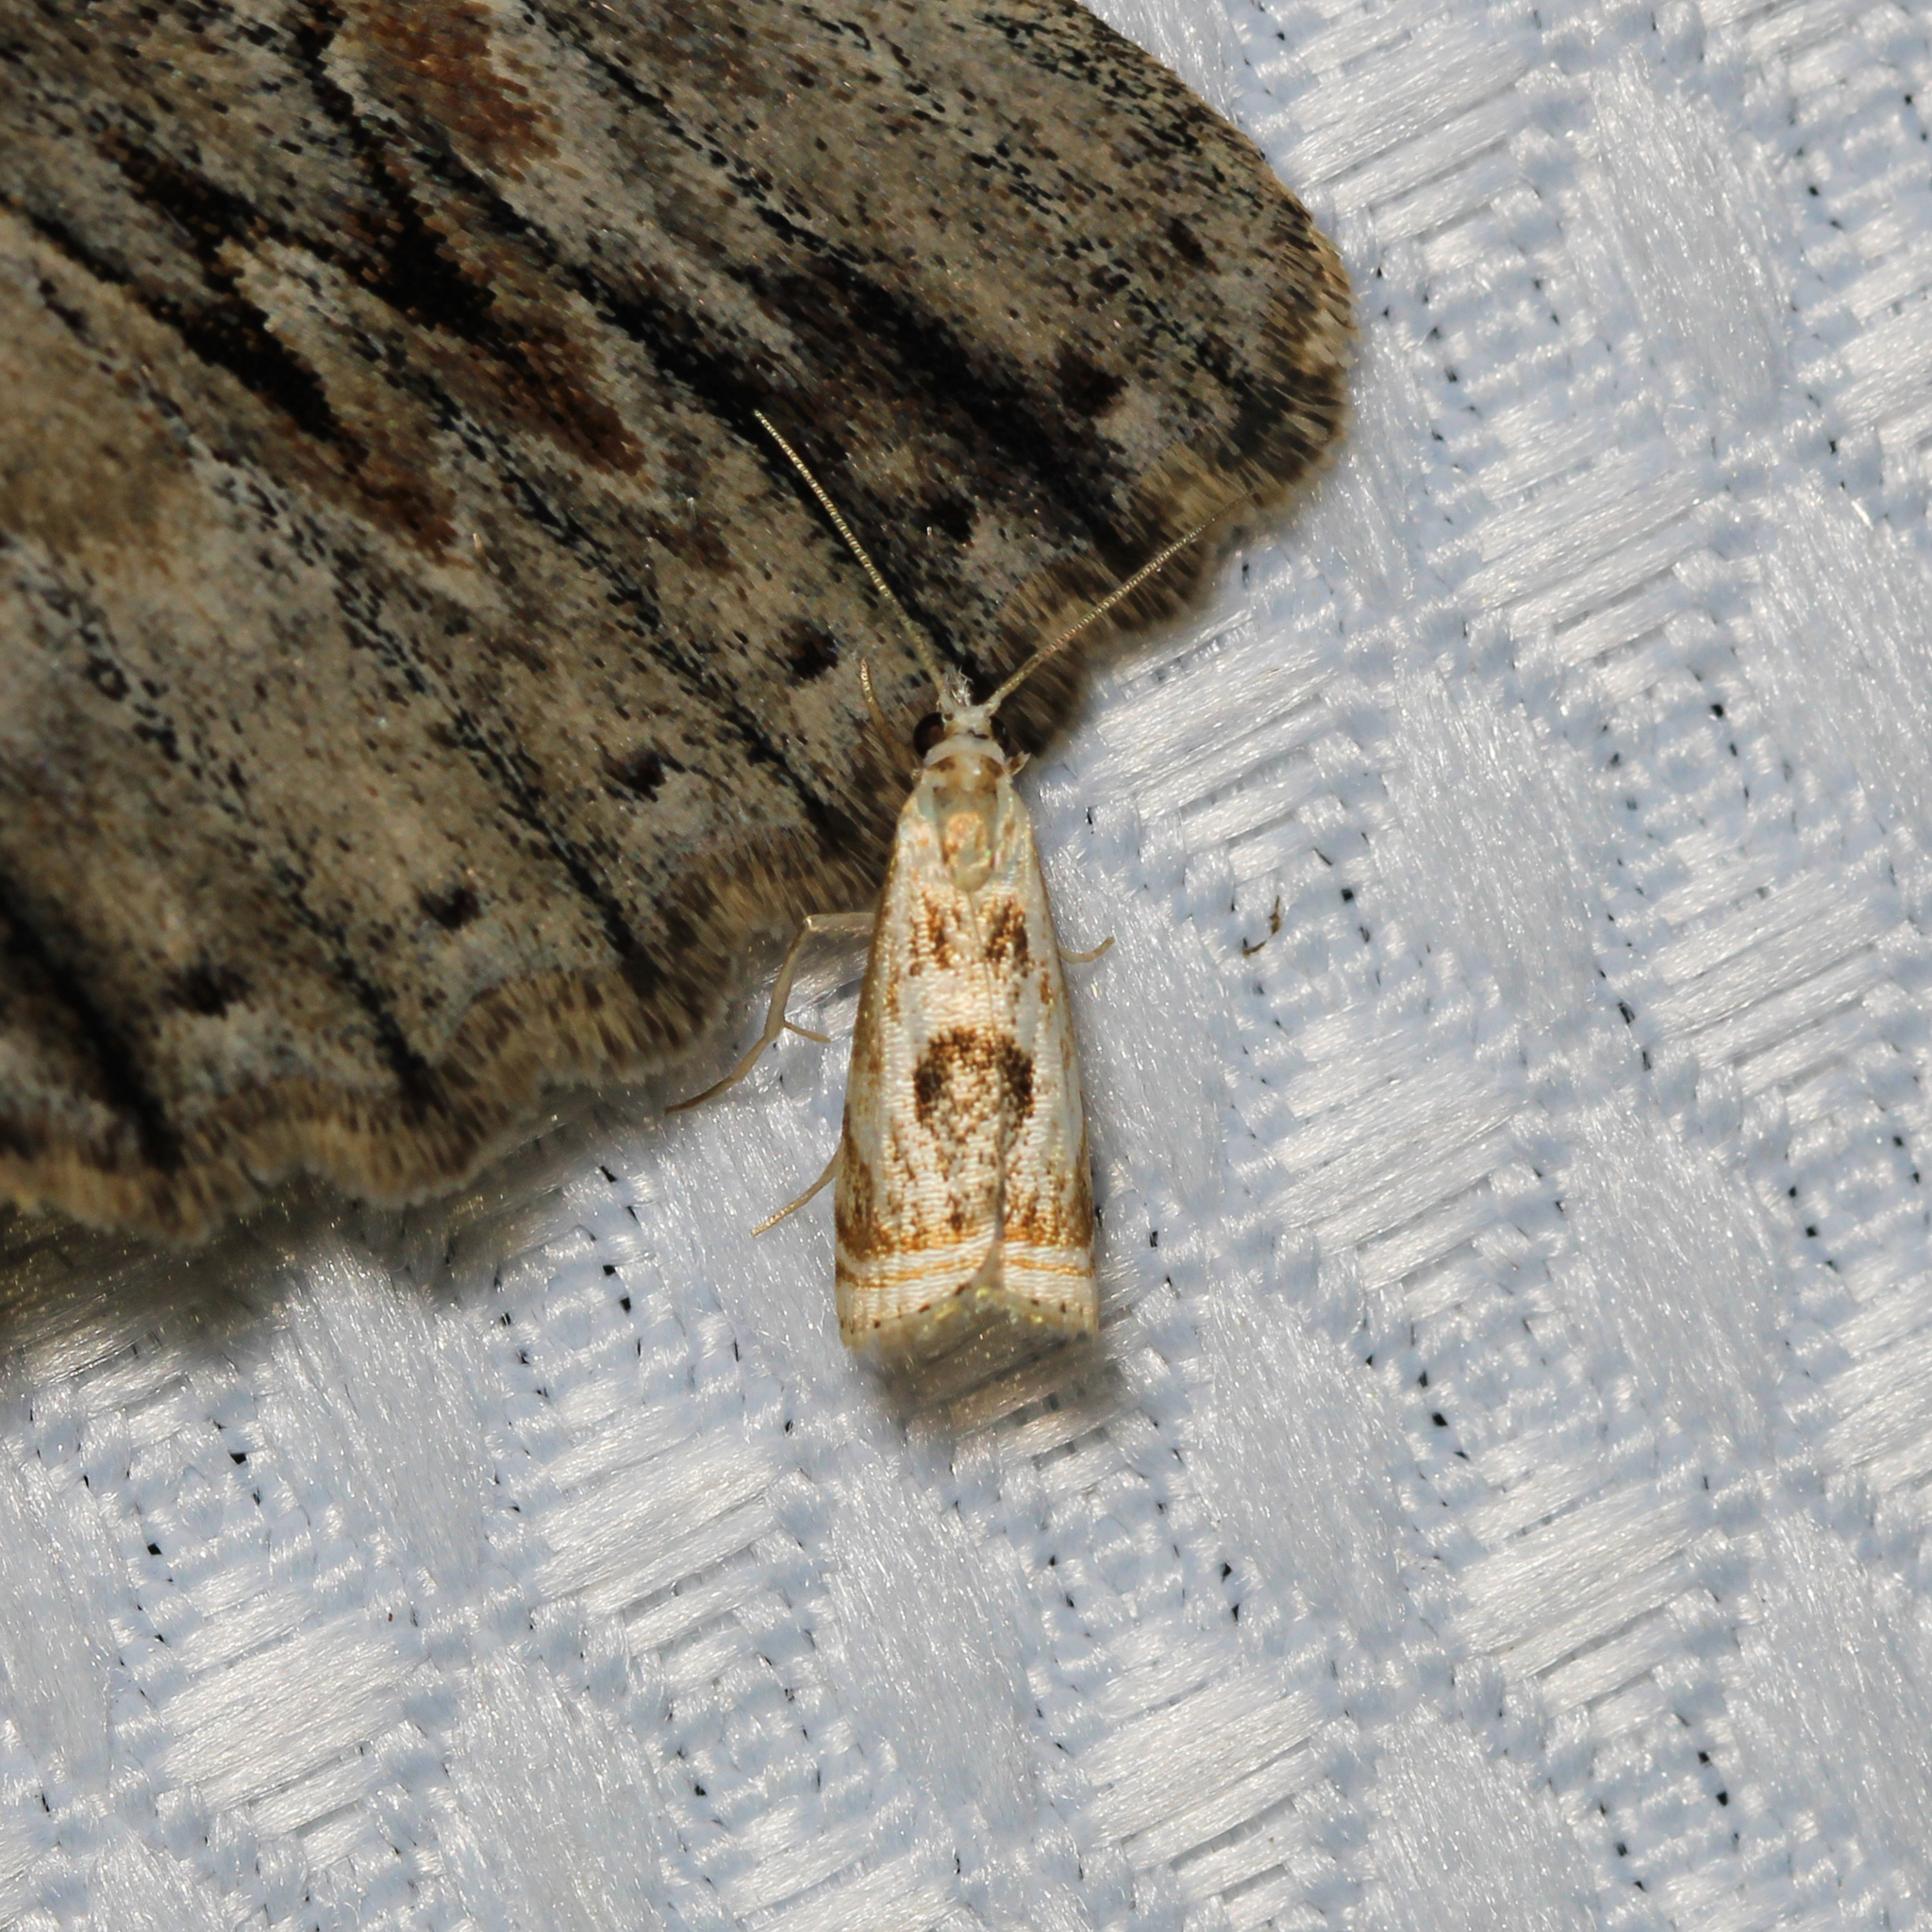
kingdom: Animalia
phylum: Arthropoda
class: Insecta
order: Lepidoptera
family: Crambidae
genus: Microcrambus
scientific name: Microcrambus elegans
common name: Elegant grass-veneer
